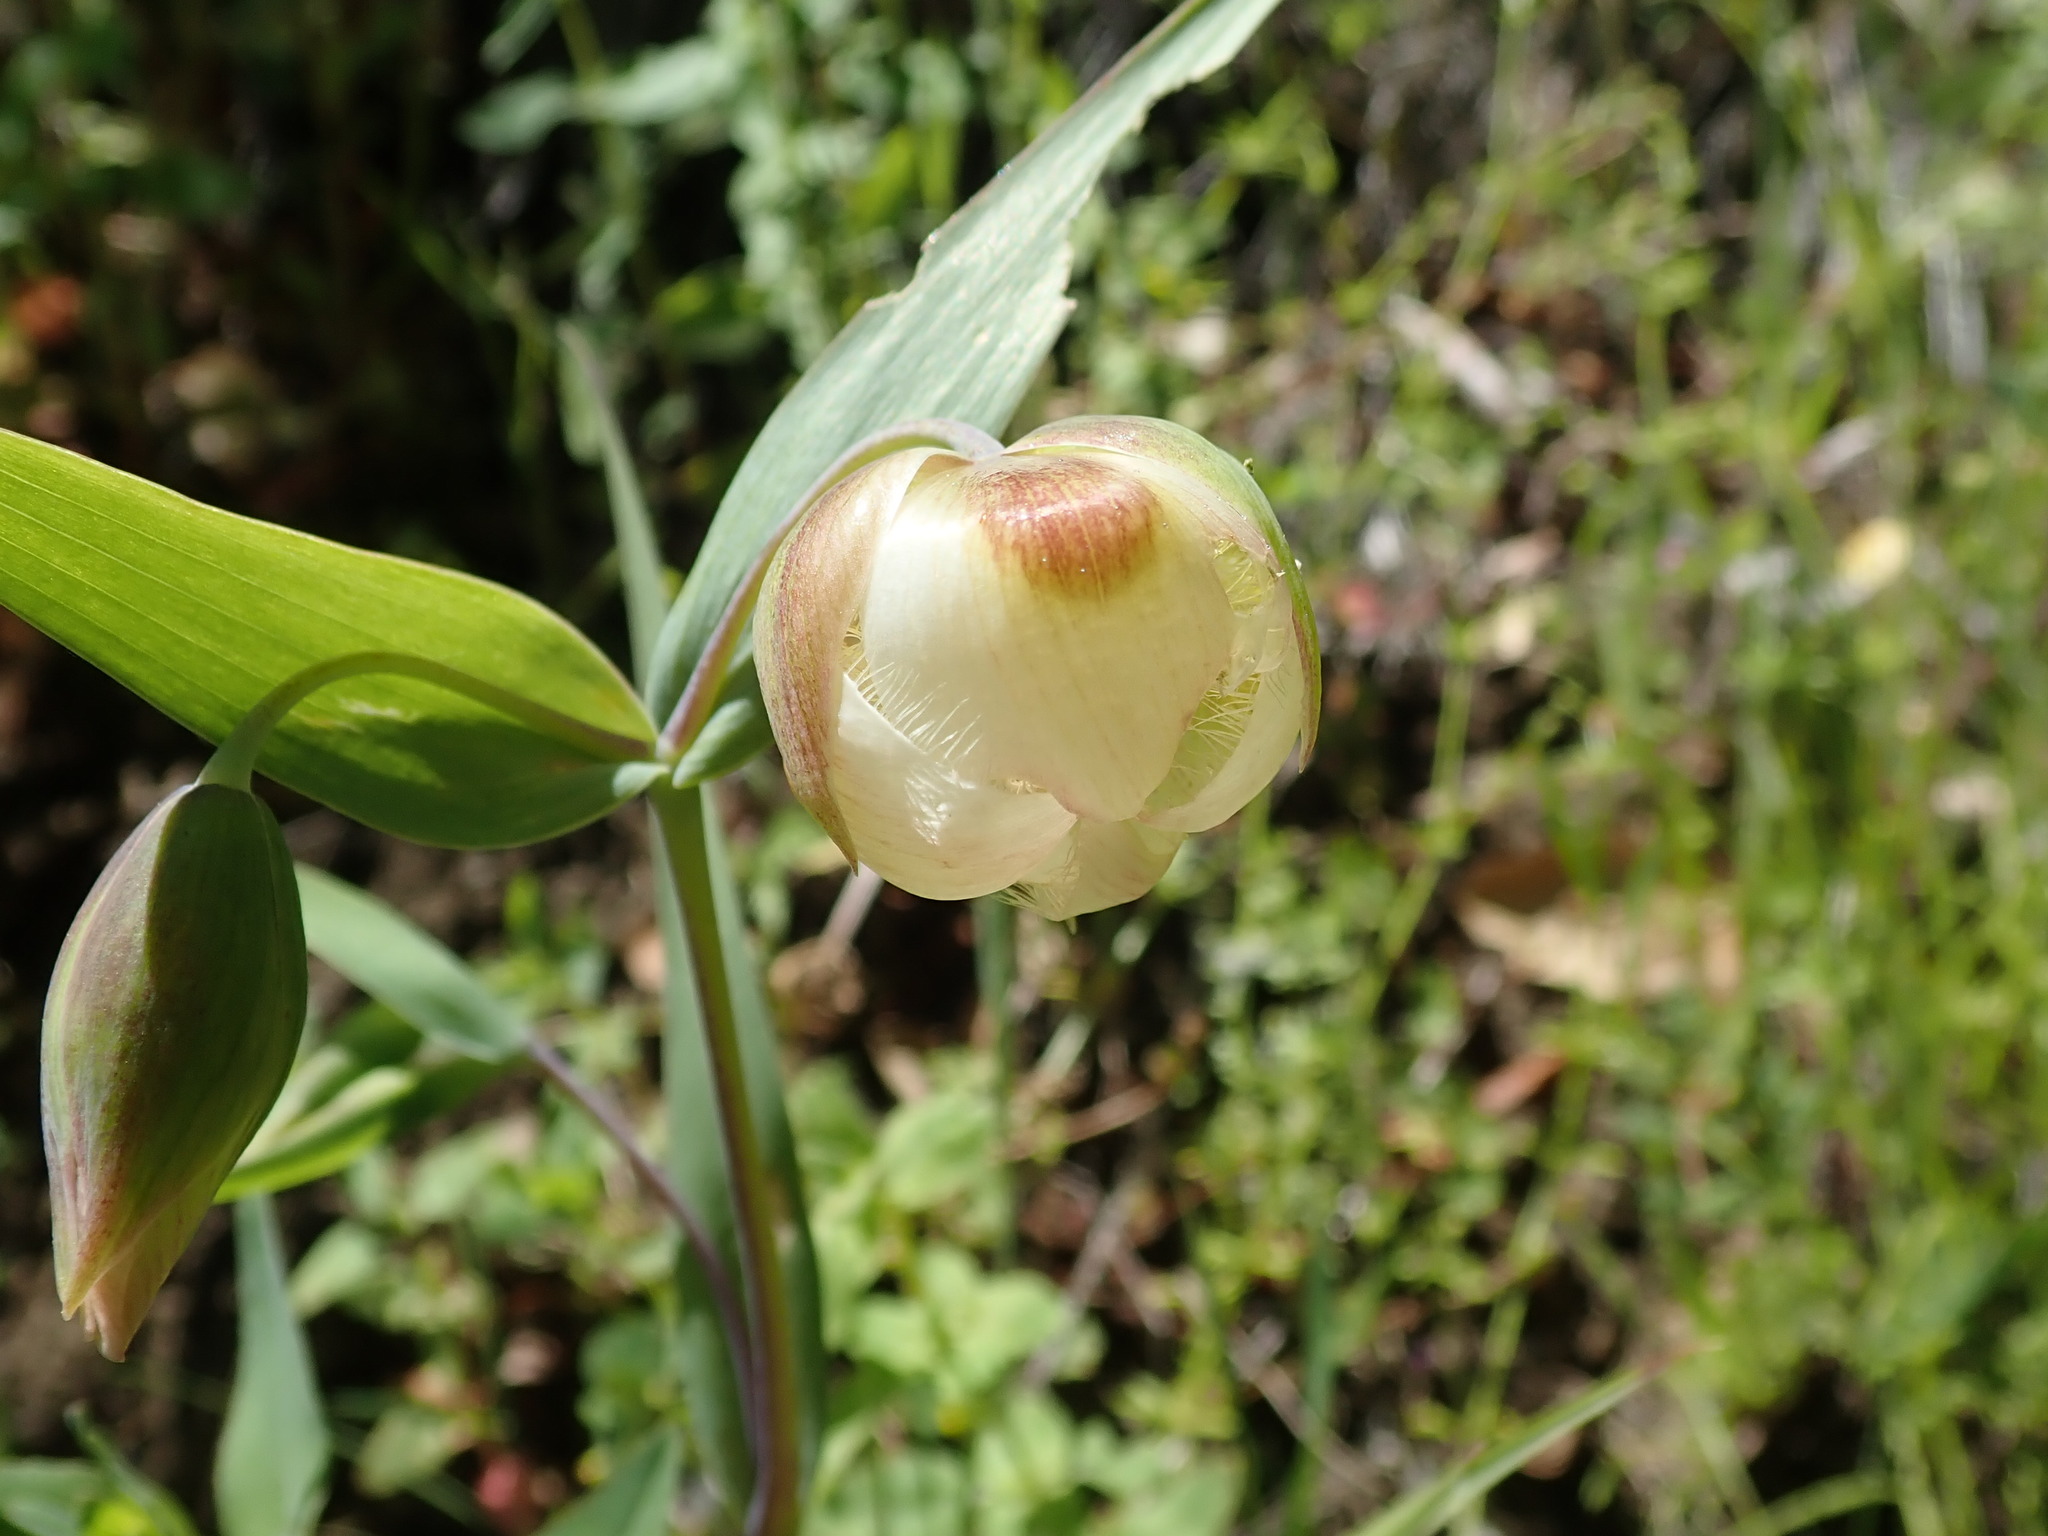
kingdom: Plantae
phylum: Tracheophyta
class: Liliopsida
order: Liliales
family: Liliaceae
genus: Calochortus
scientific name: Calochortus albus
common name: Fairy-lantern
